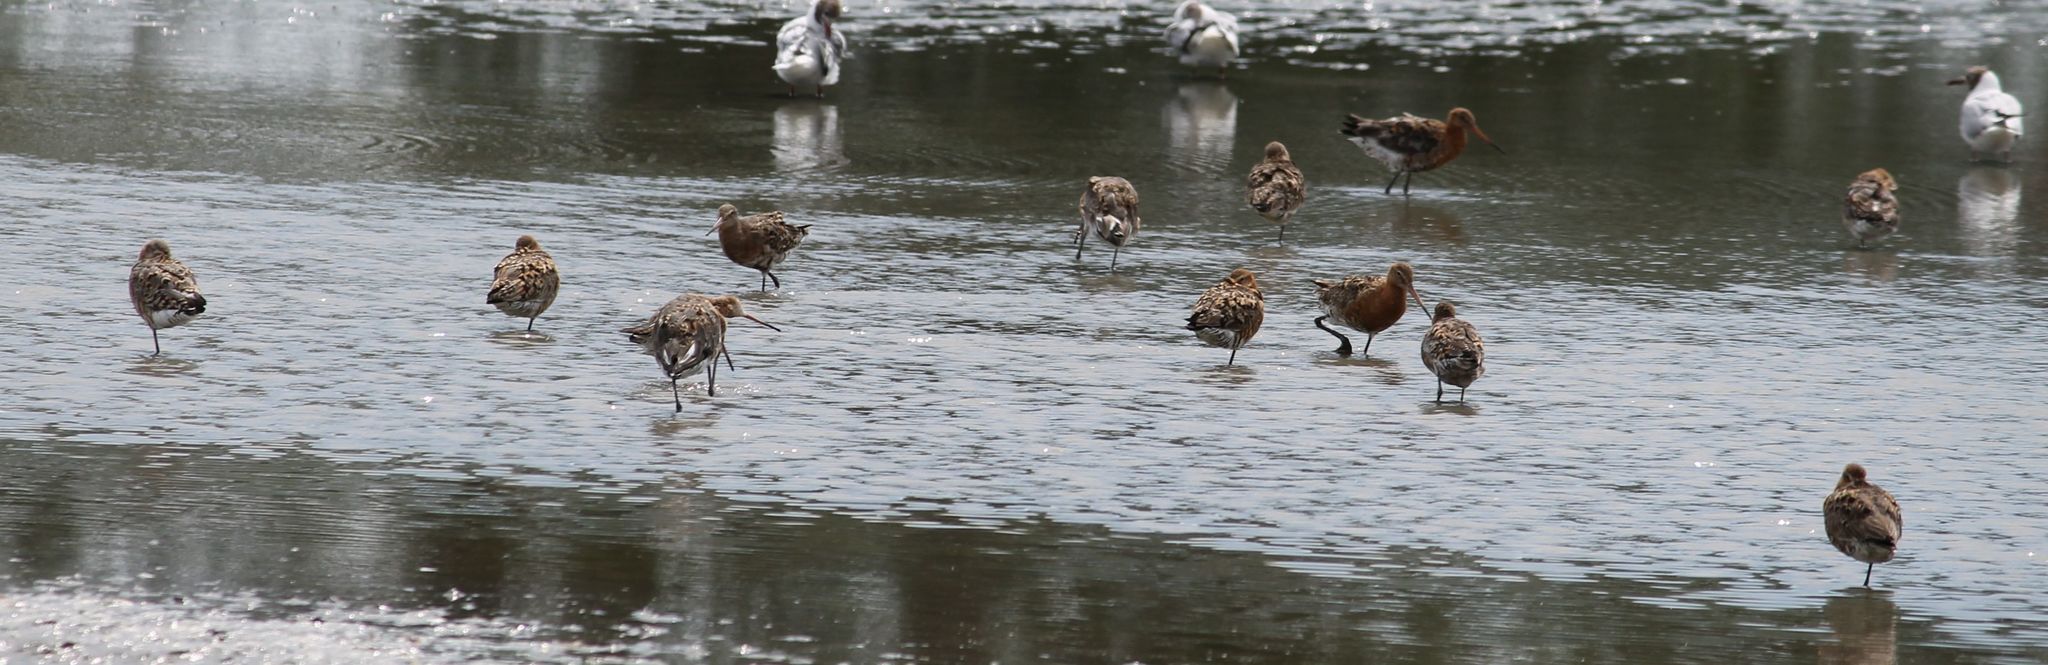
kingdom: Animalia
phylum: Chordata
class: Aves
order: Charadriiformes
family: Scolopacidae
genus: Limosa
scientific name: Limosa limosa
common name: Black-tailed godwit
